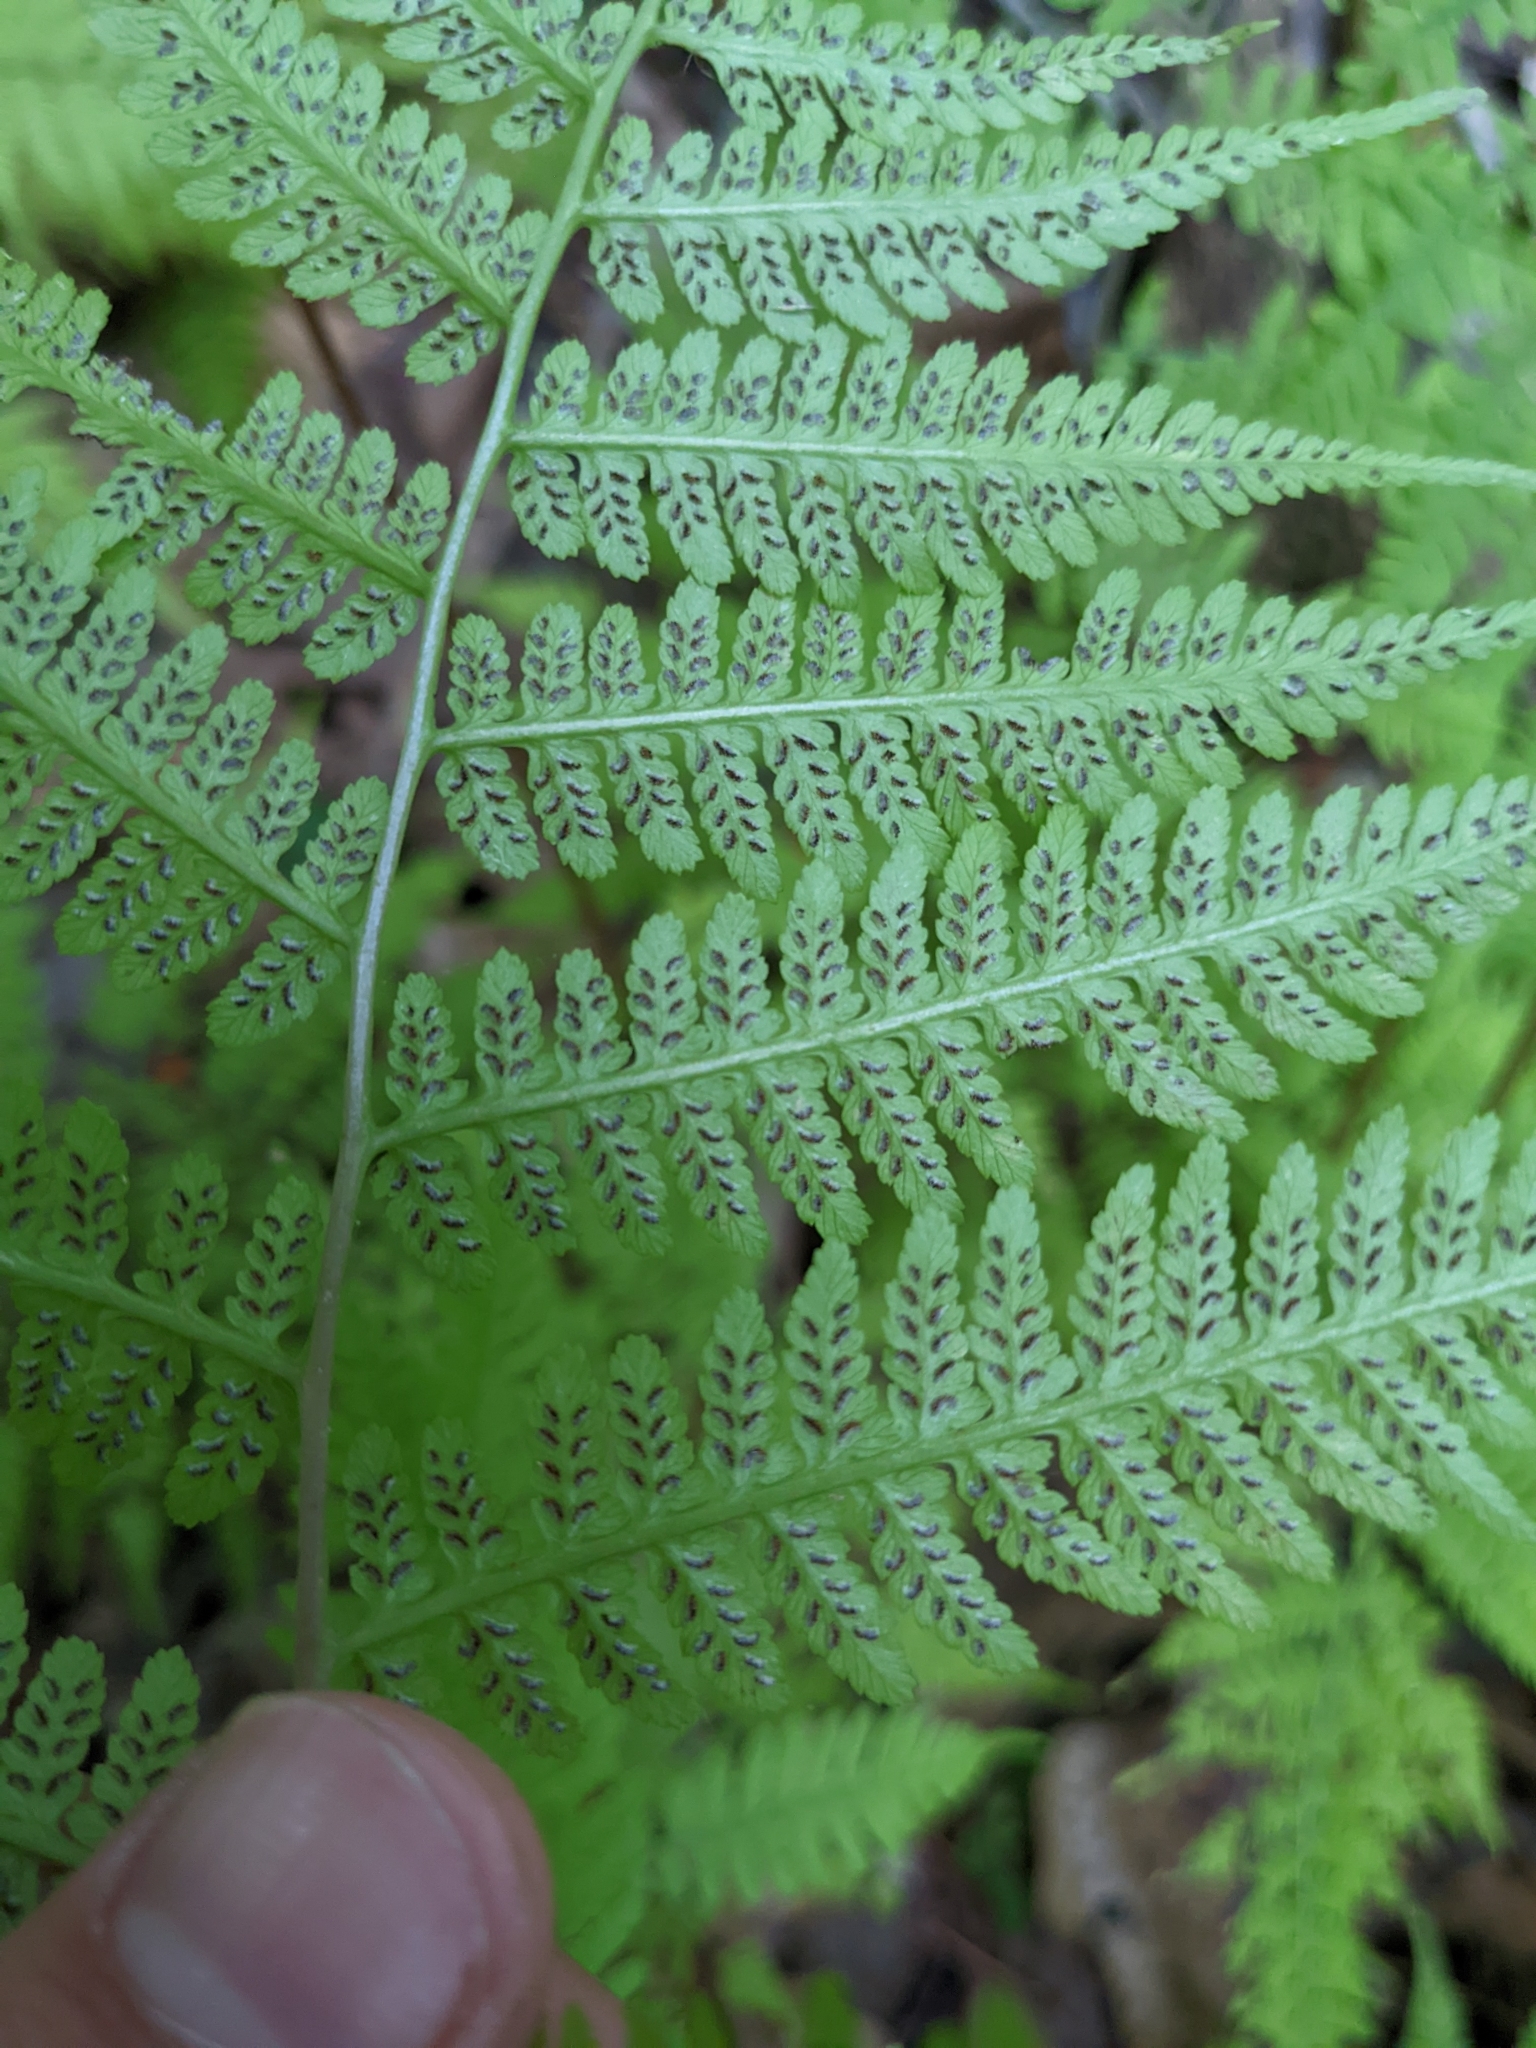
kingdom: Plantae
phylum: Tracheophyta
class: Polypodiopsida
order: Polypodiales
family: Athyriaceae
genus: Athyrium
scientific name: Athyrium asplenioides
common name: Southern lady fern
